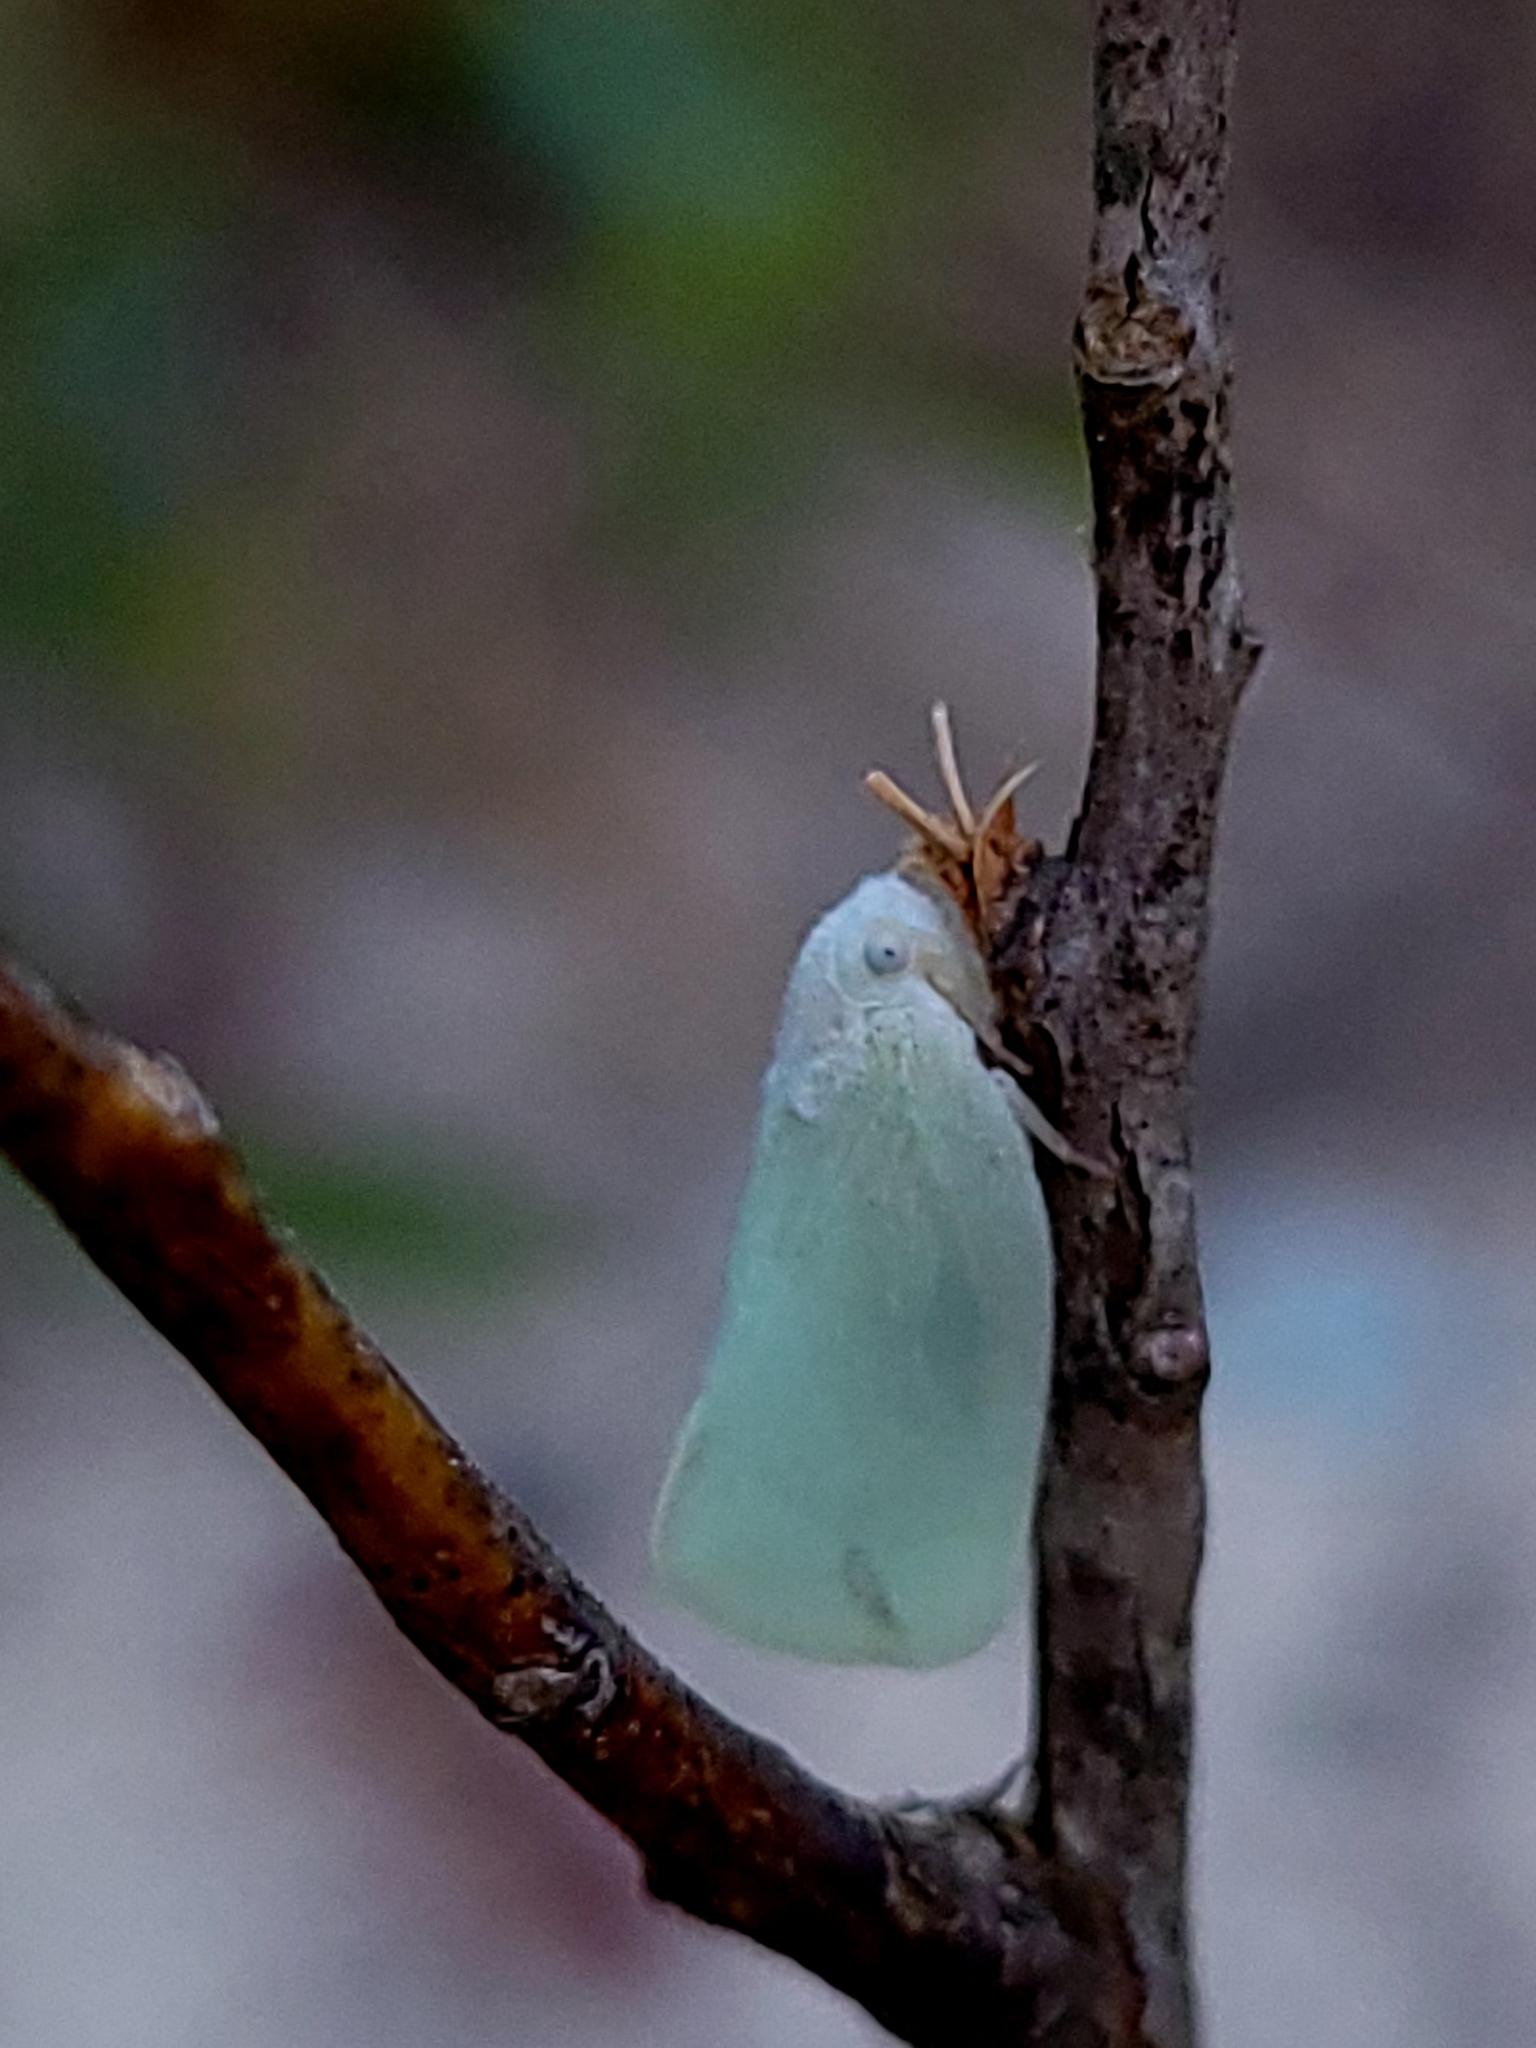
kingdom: Animalia
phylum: Arthropoda
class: Insecta
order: Hemiptera
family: Flatidae
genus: Flatormenis
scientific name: Flatormenis proxima
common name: Northern flatid planthopper
